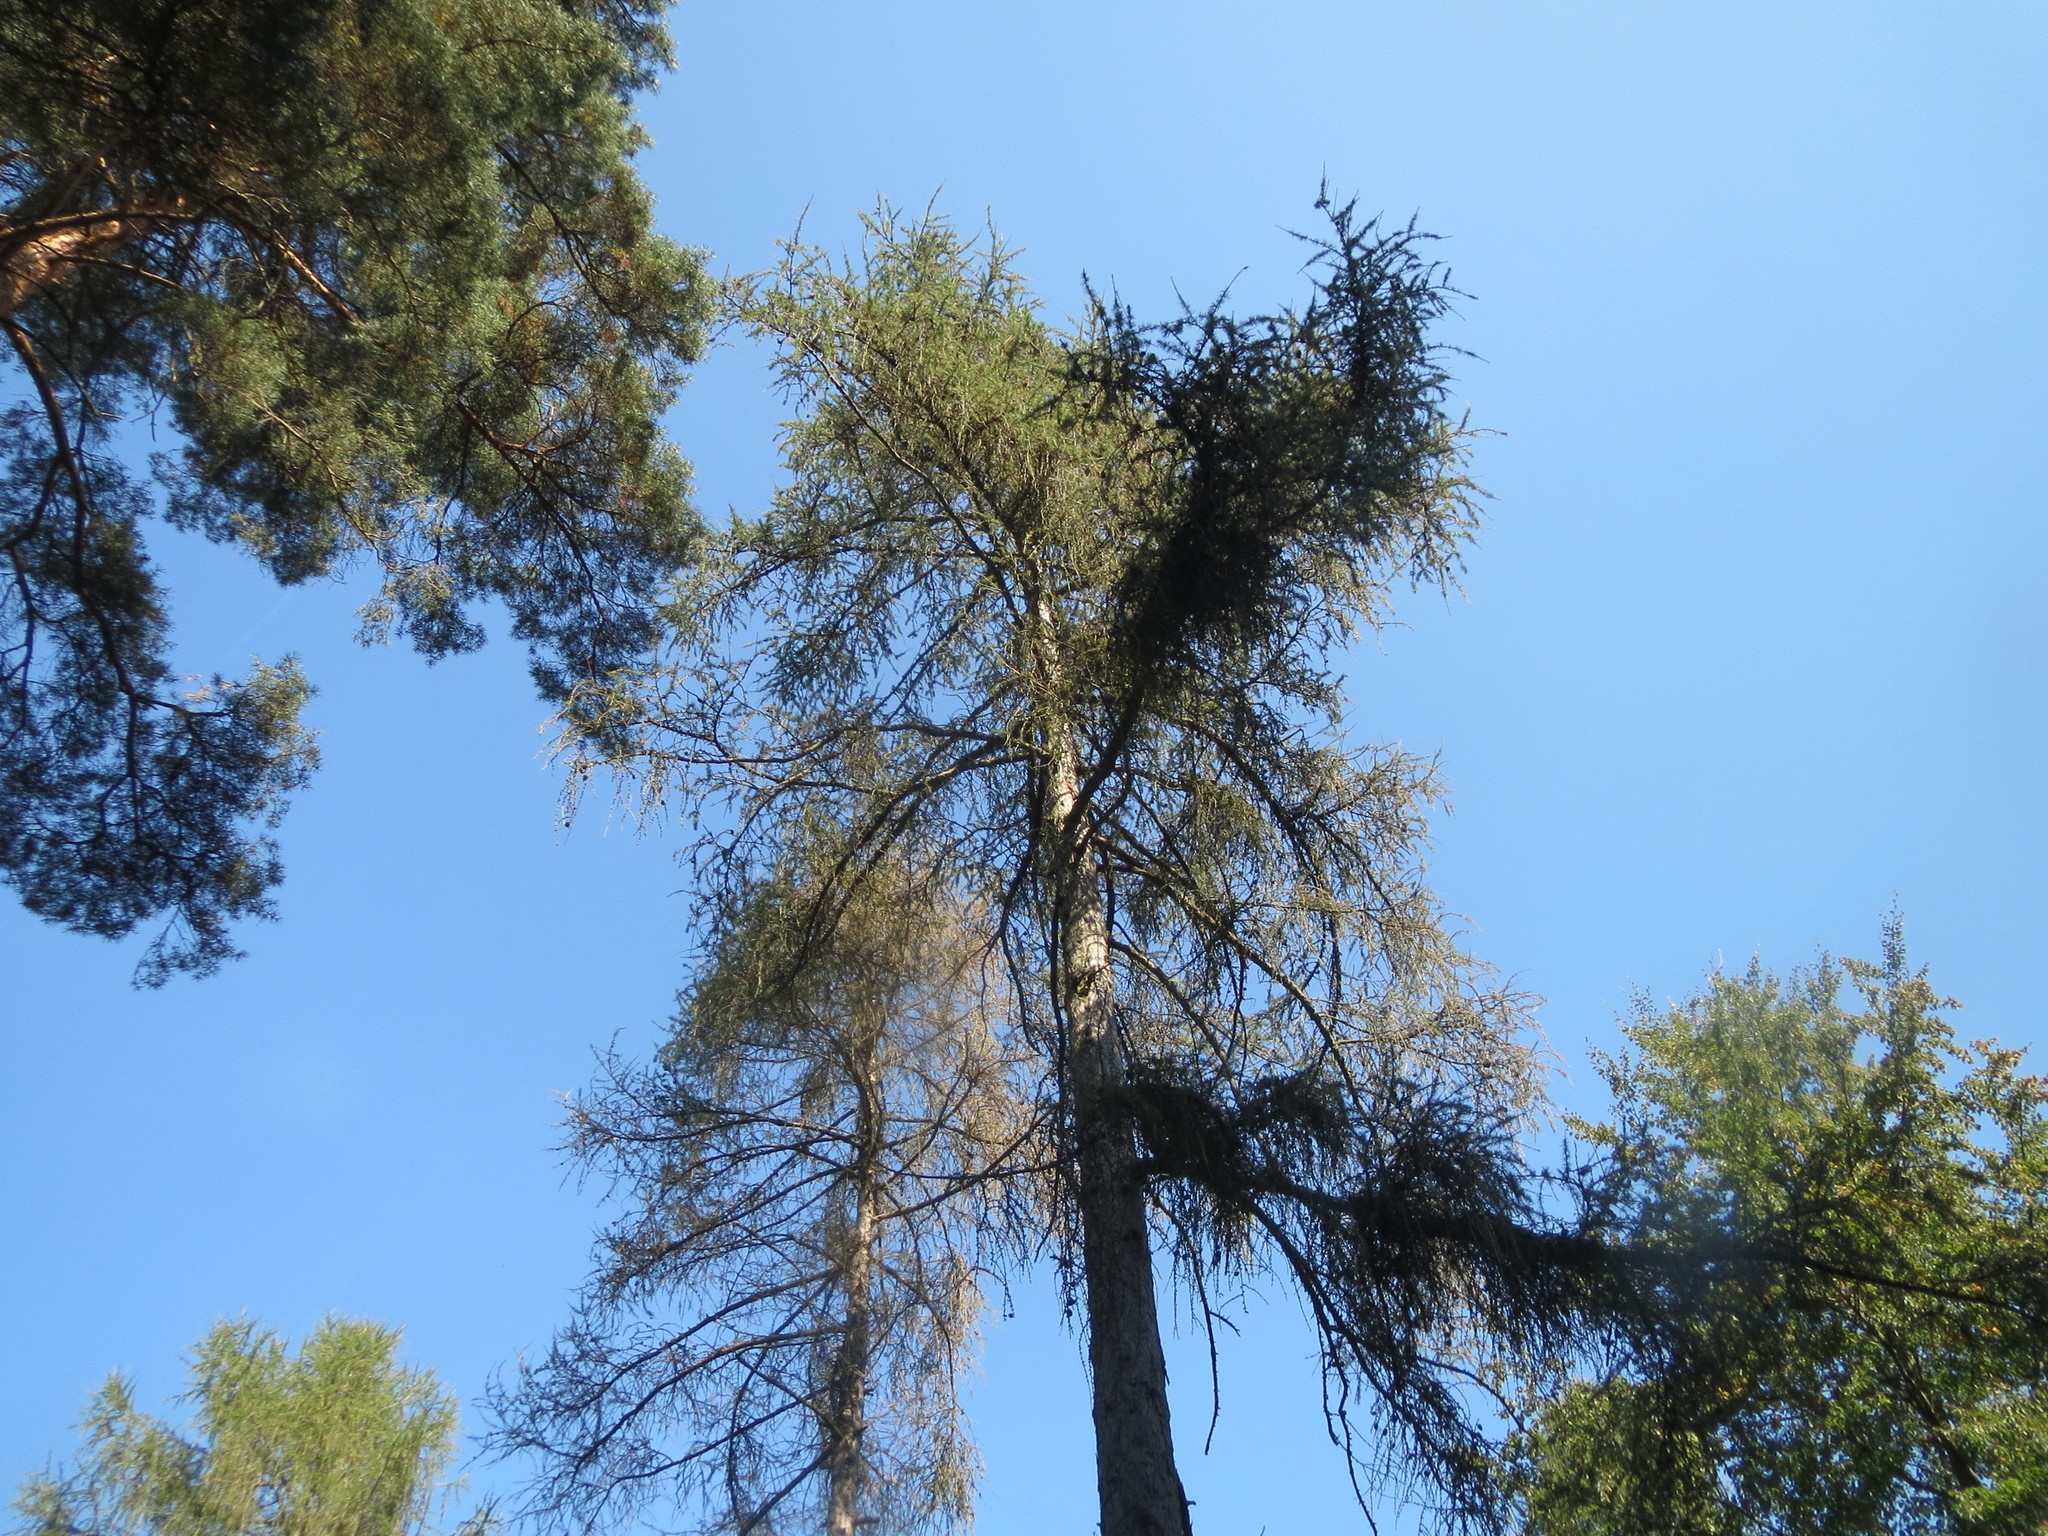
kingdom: Plantae
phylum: Tracheophyta
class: Pinopsida
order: Pinales
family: Pinaceae
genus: Larix
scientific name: Larix decidua
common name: European larch
